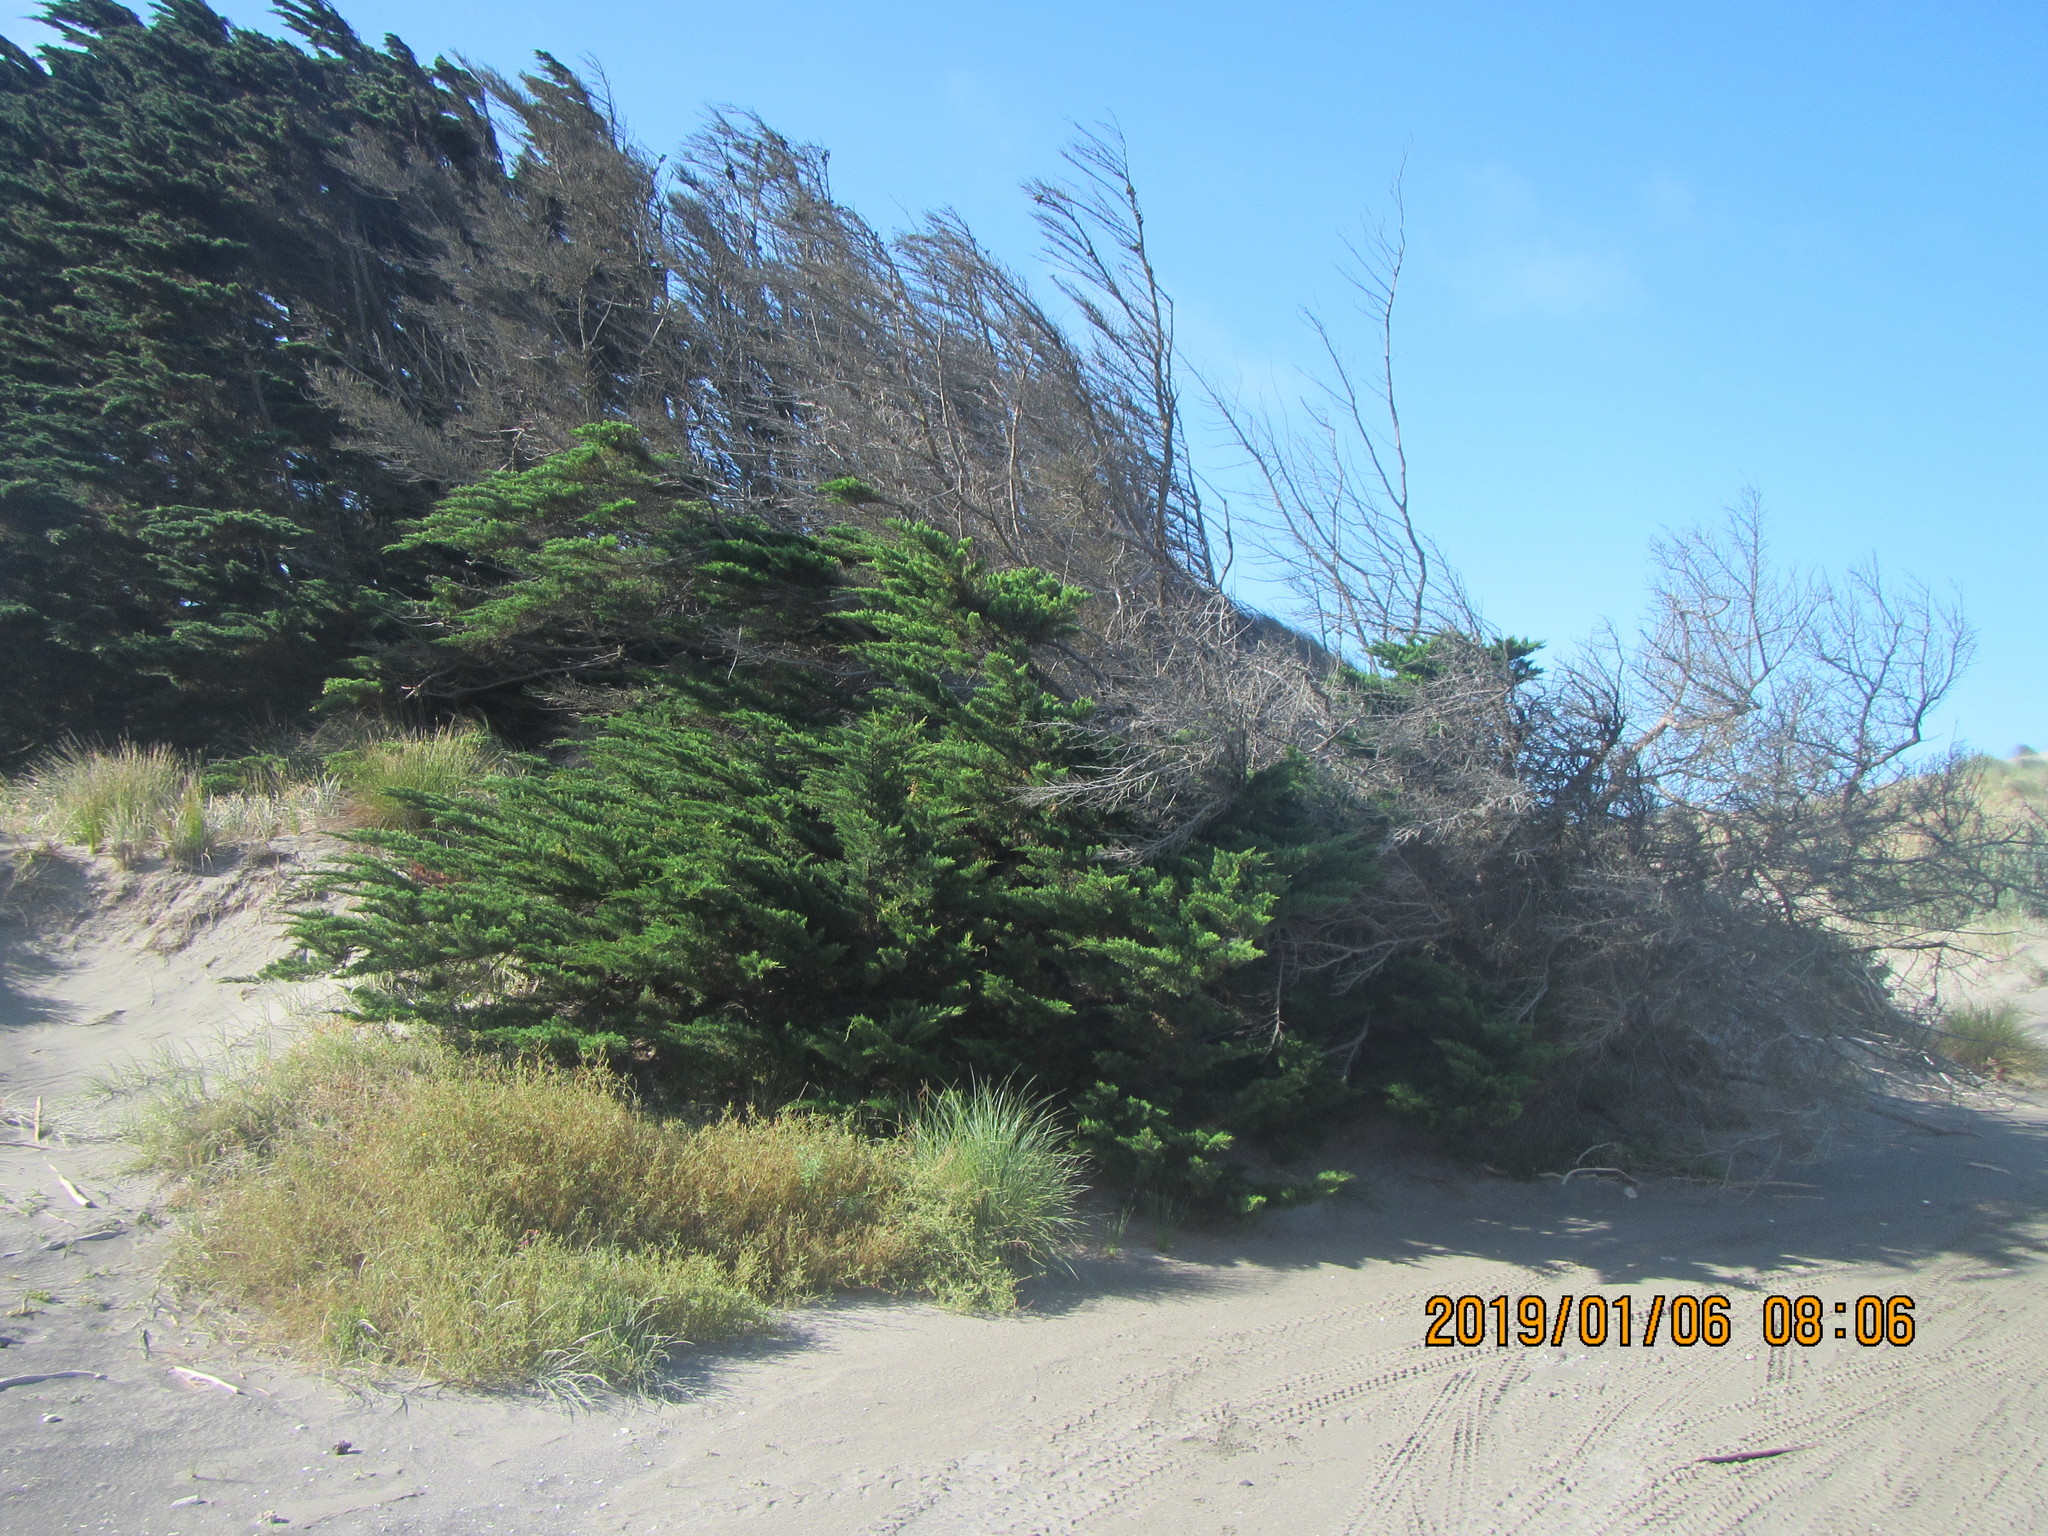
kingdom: Plantae
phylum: Tracheophyta
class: Pinopsida
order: Pinales
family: Cupressaceae
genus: Cupressus
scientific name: Cupressus macrocarpa
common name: Monterey cypress
